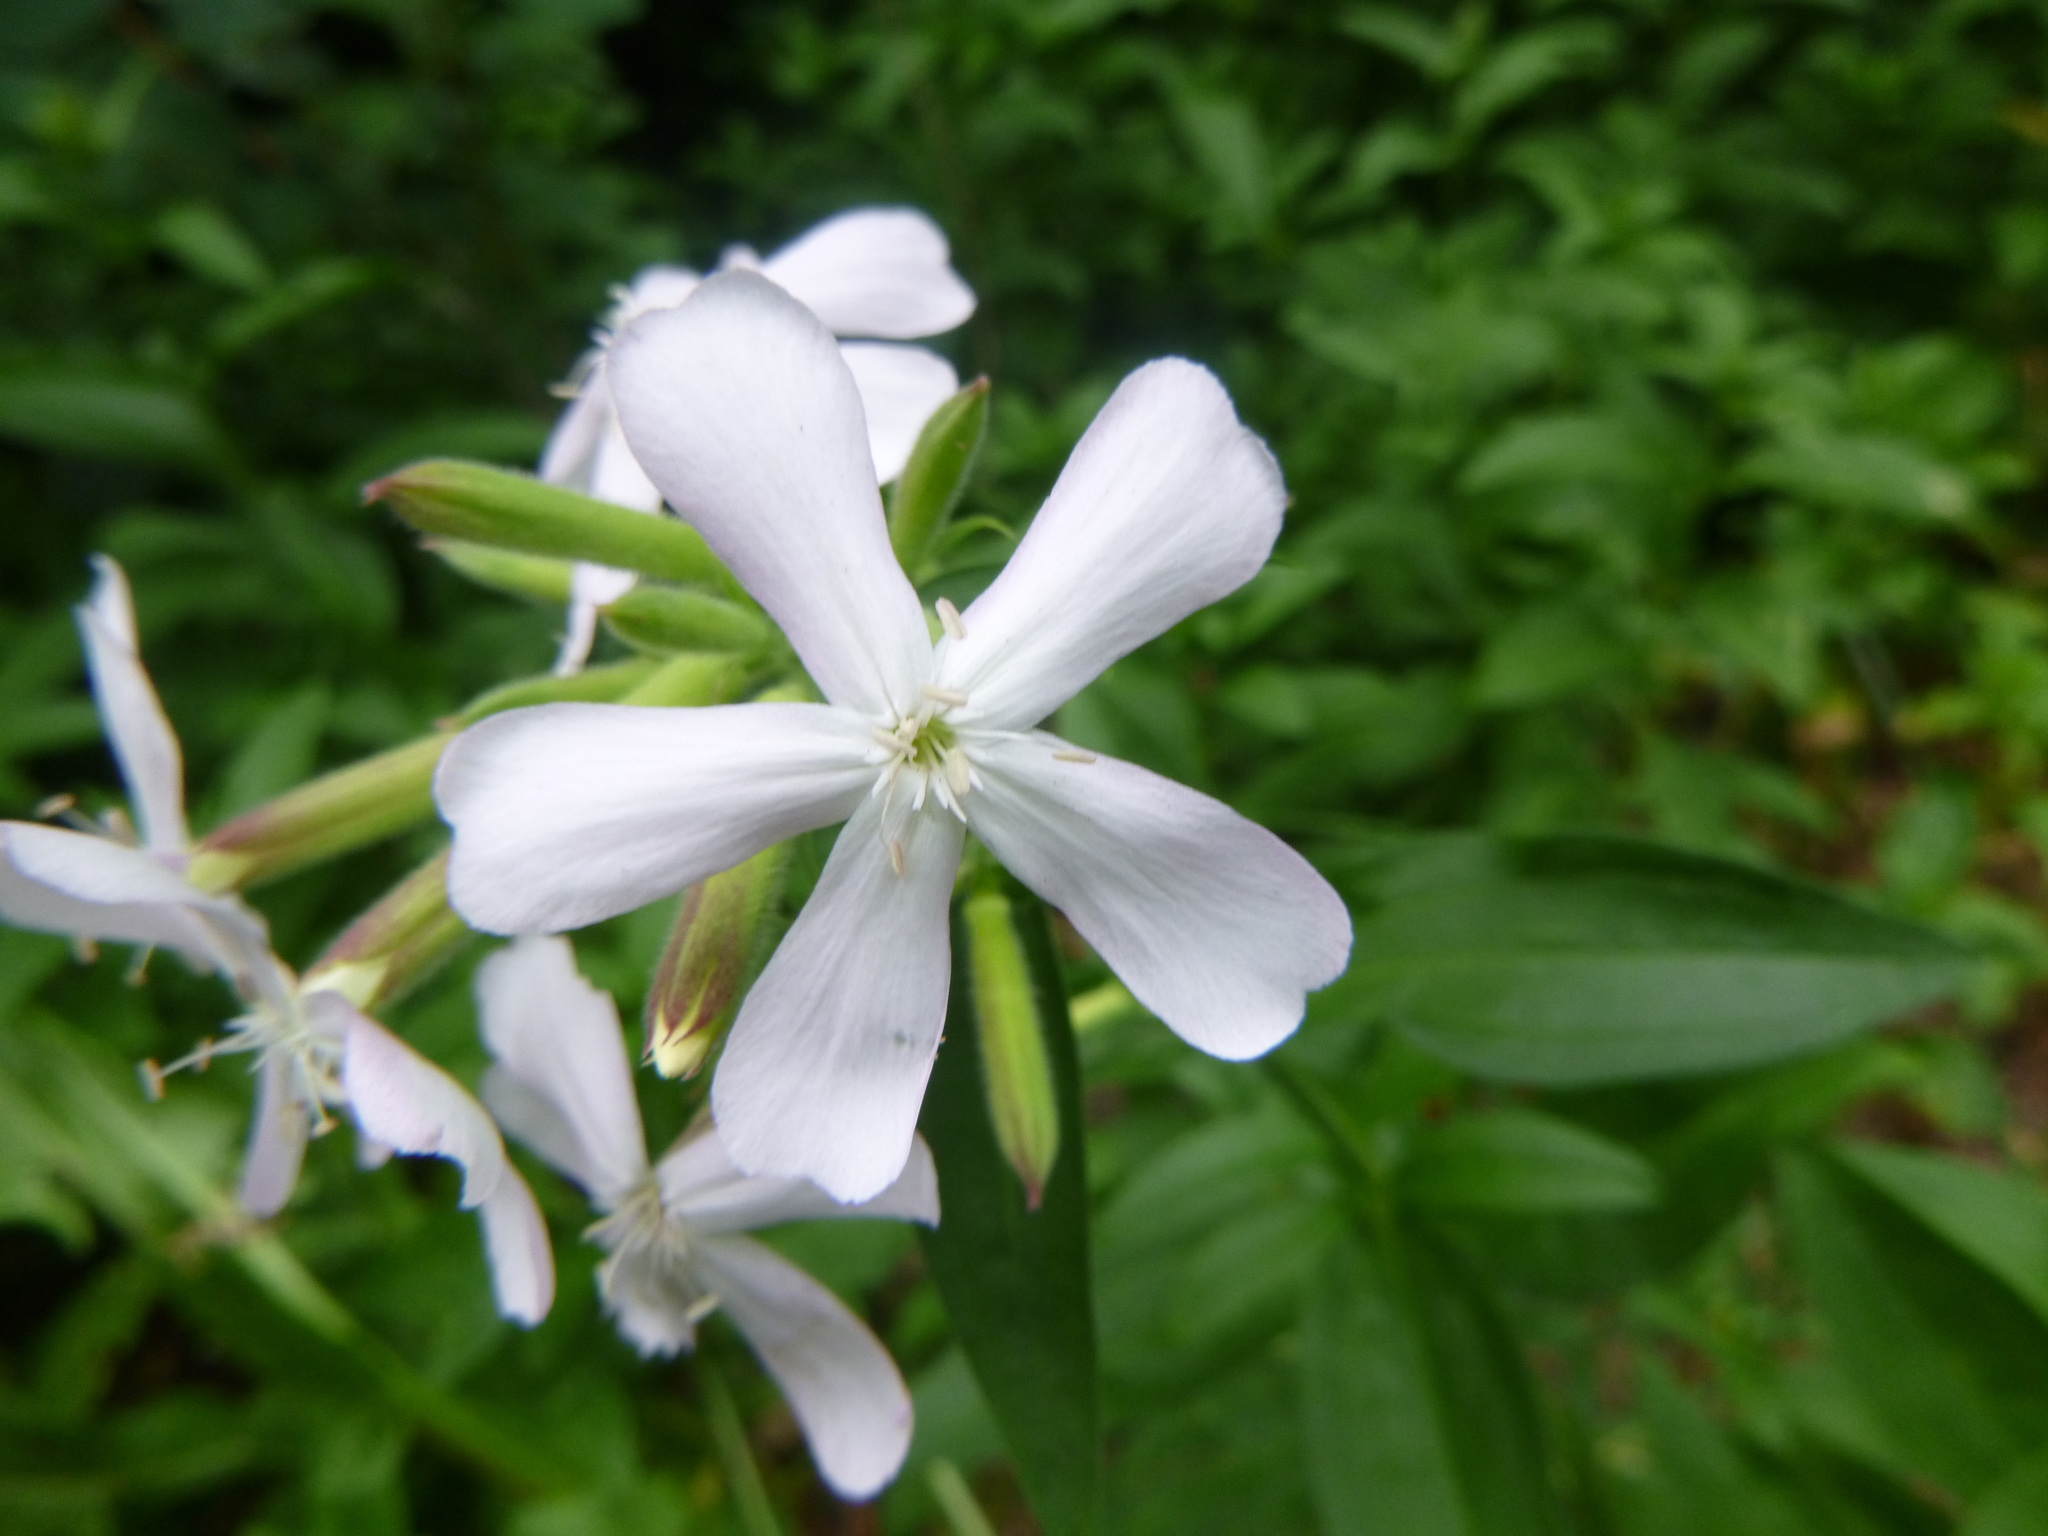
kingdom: Plantae
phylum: Tracheophyta
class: Magnoliopsida
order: Caryophyllales
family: Caryophyllaceae
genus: Saponaria
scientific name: Saponaria officinalis
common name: Soapwort
